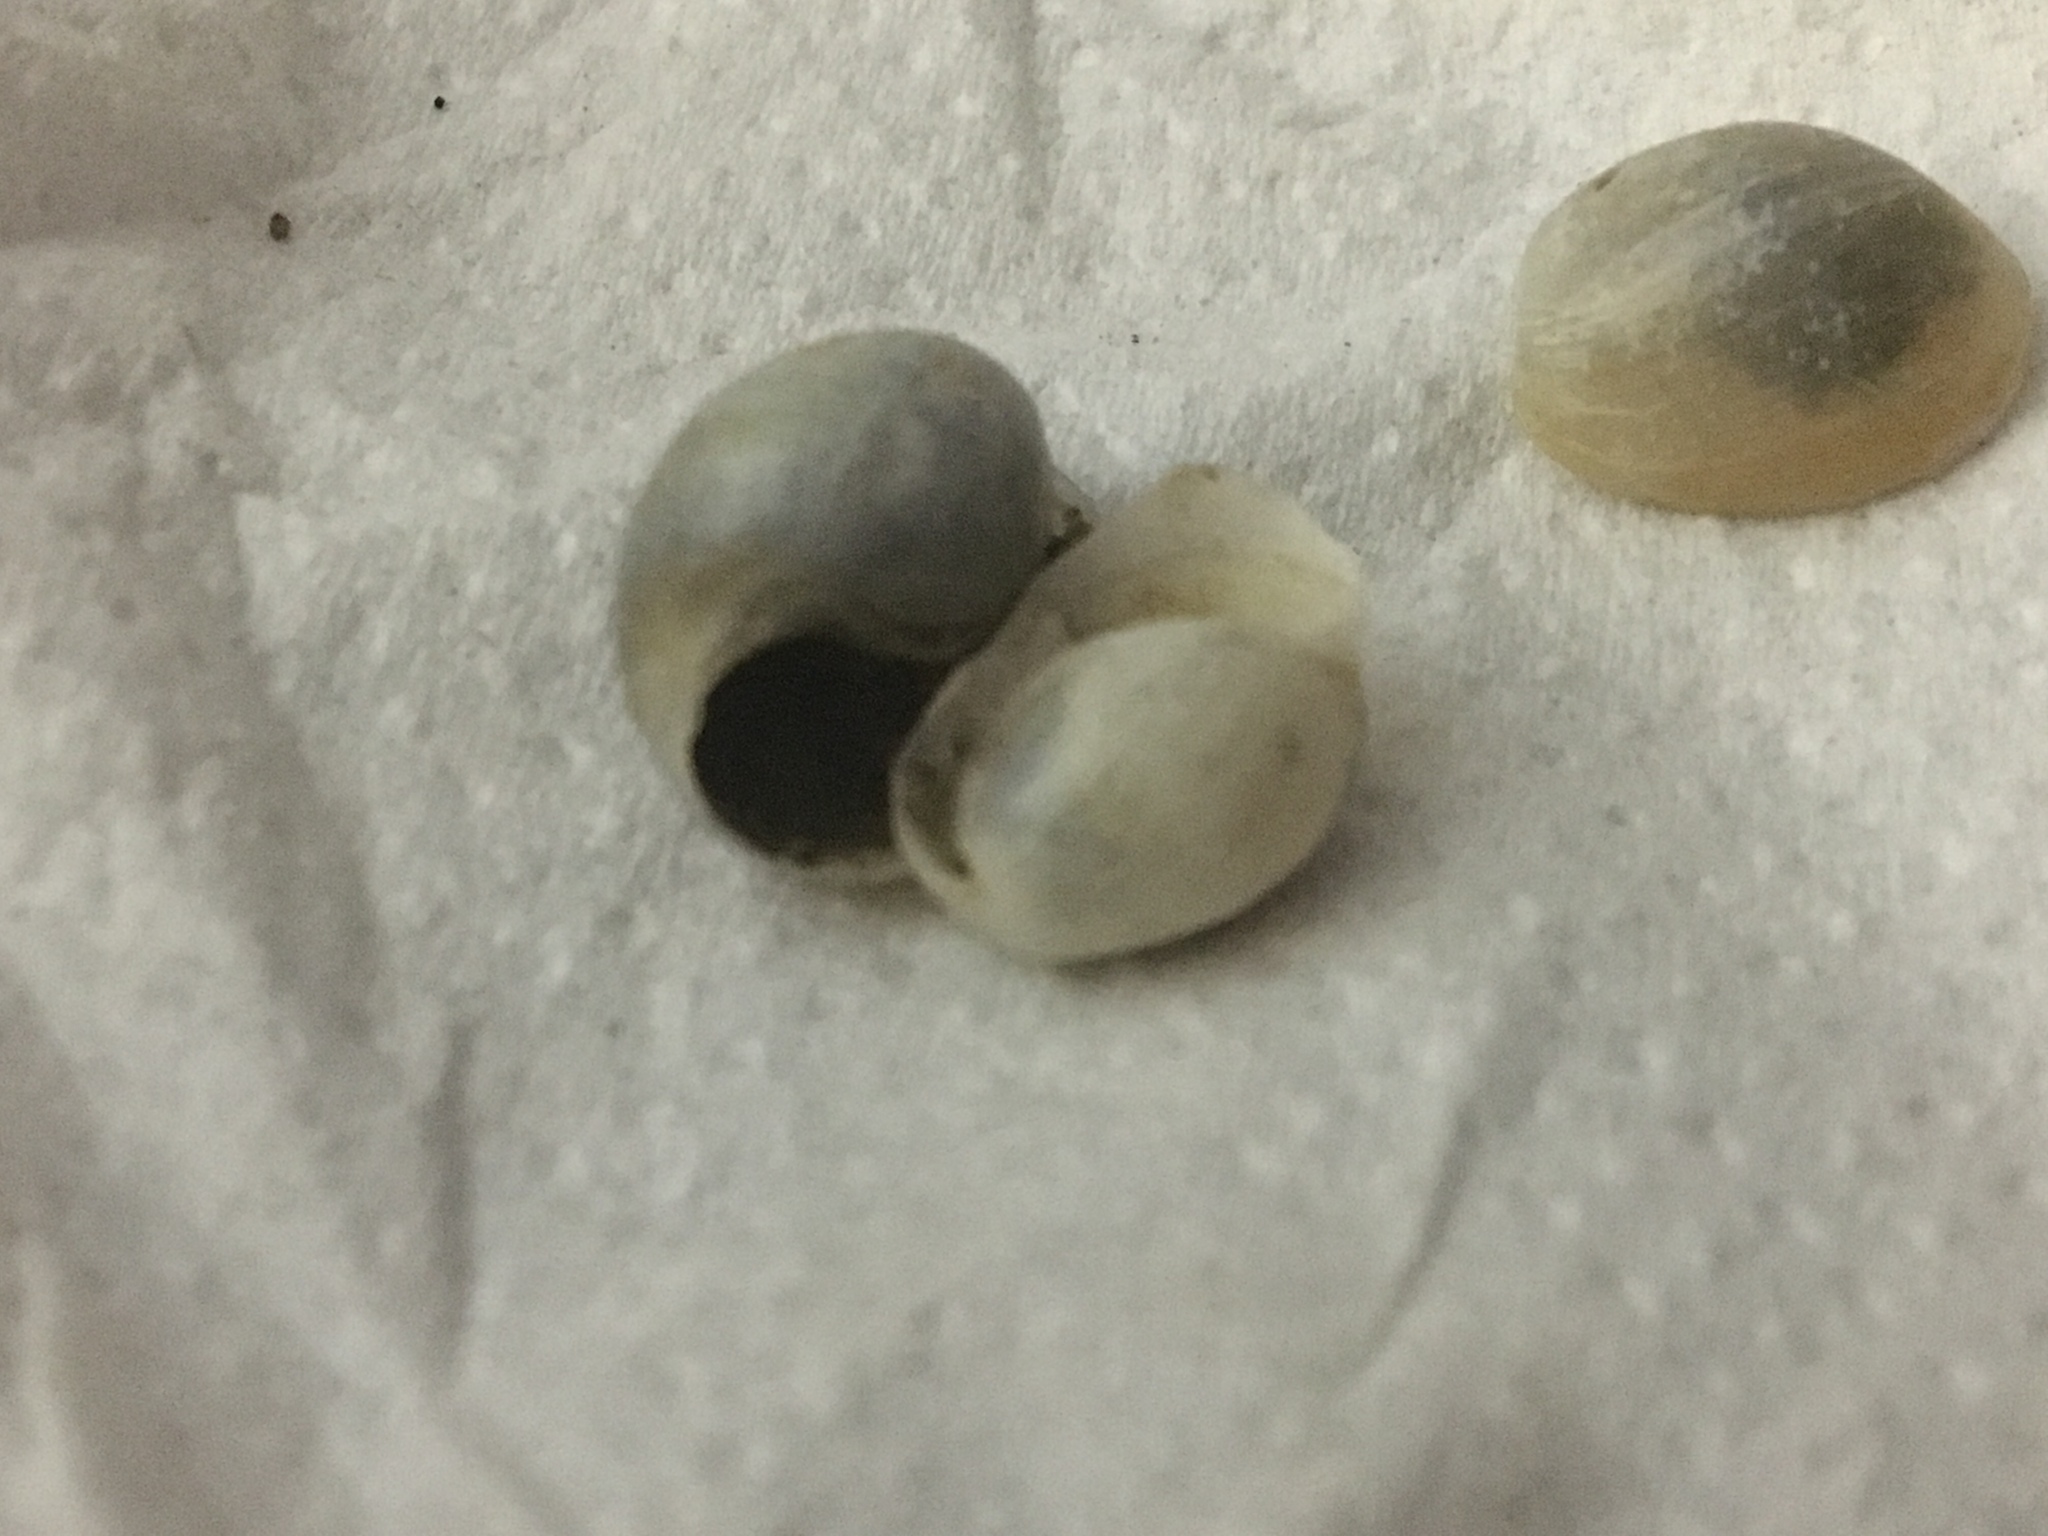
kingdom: Animalia
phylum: Mollusca
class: Gastropoda
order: Cephalaspidea
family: Haminoeidae
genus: Haloa
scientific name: Haloa japonica
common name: Japanese bubble snail
